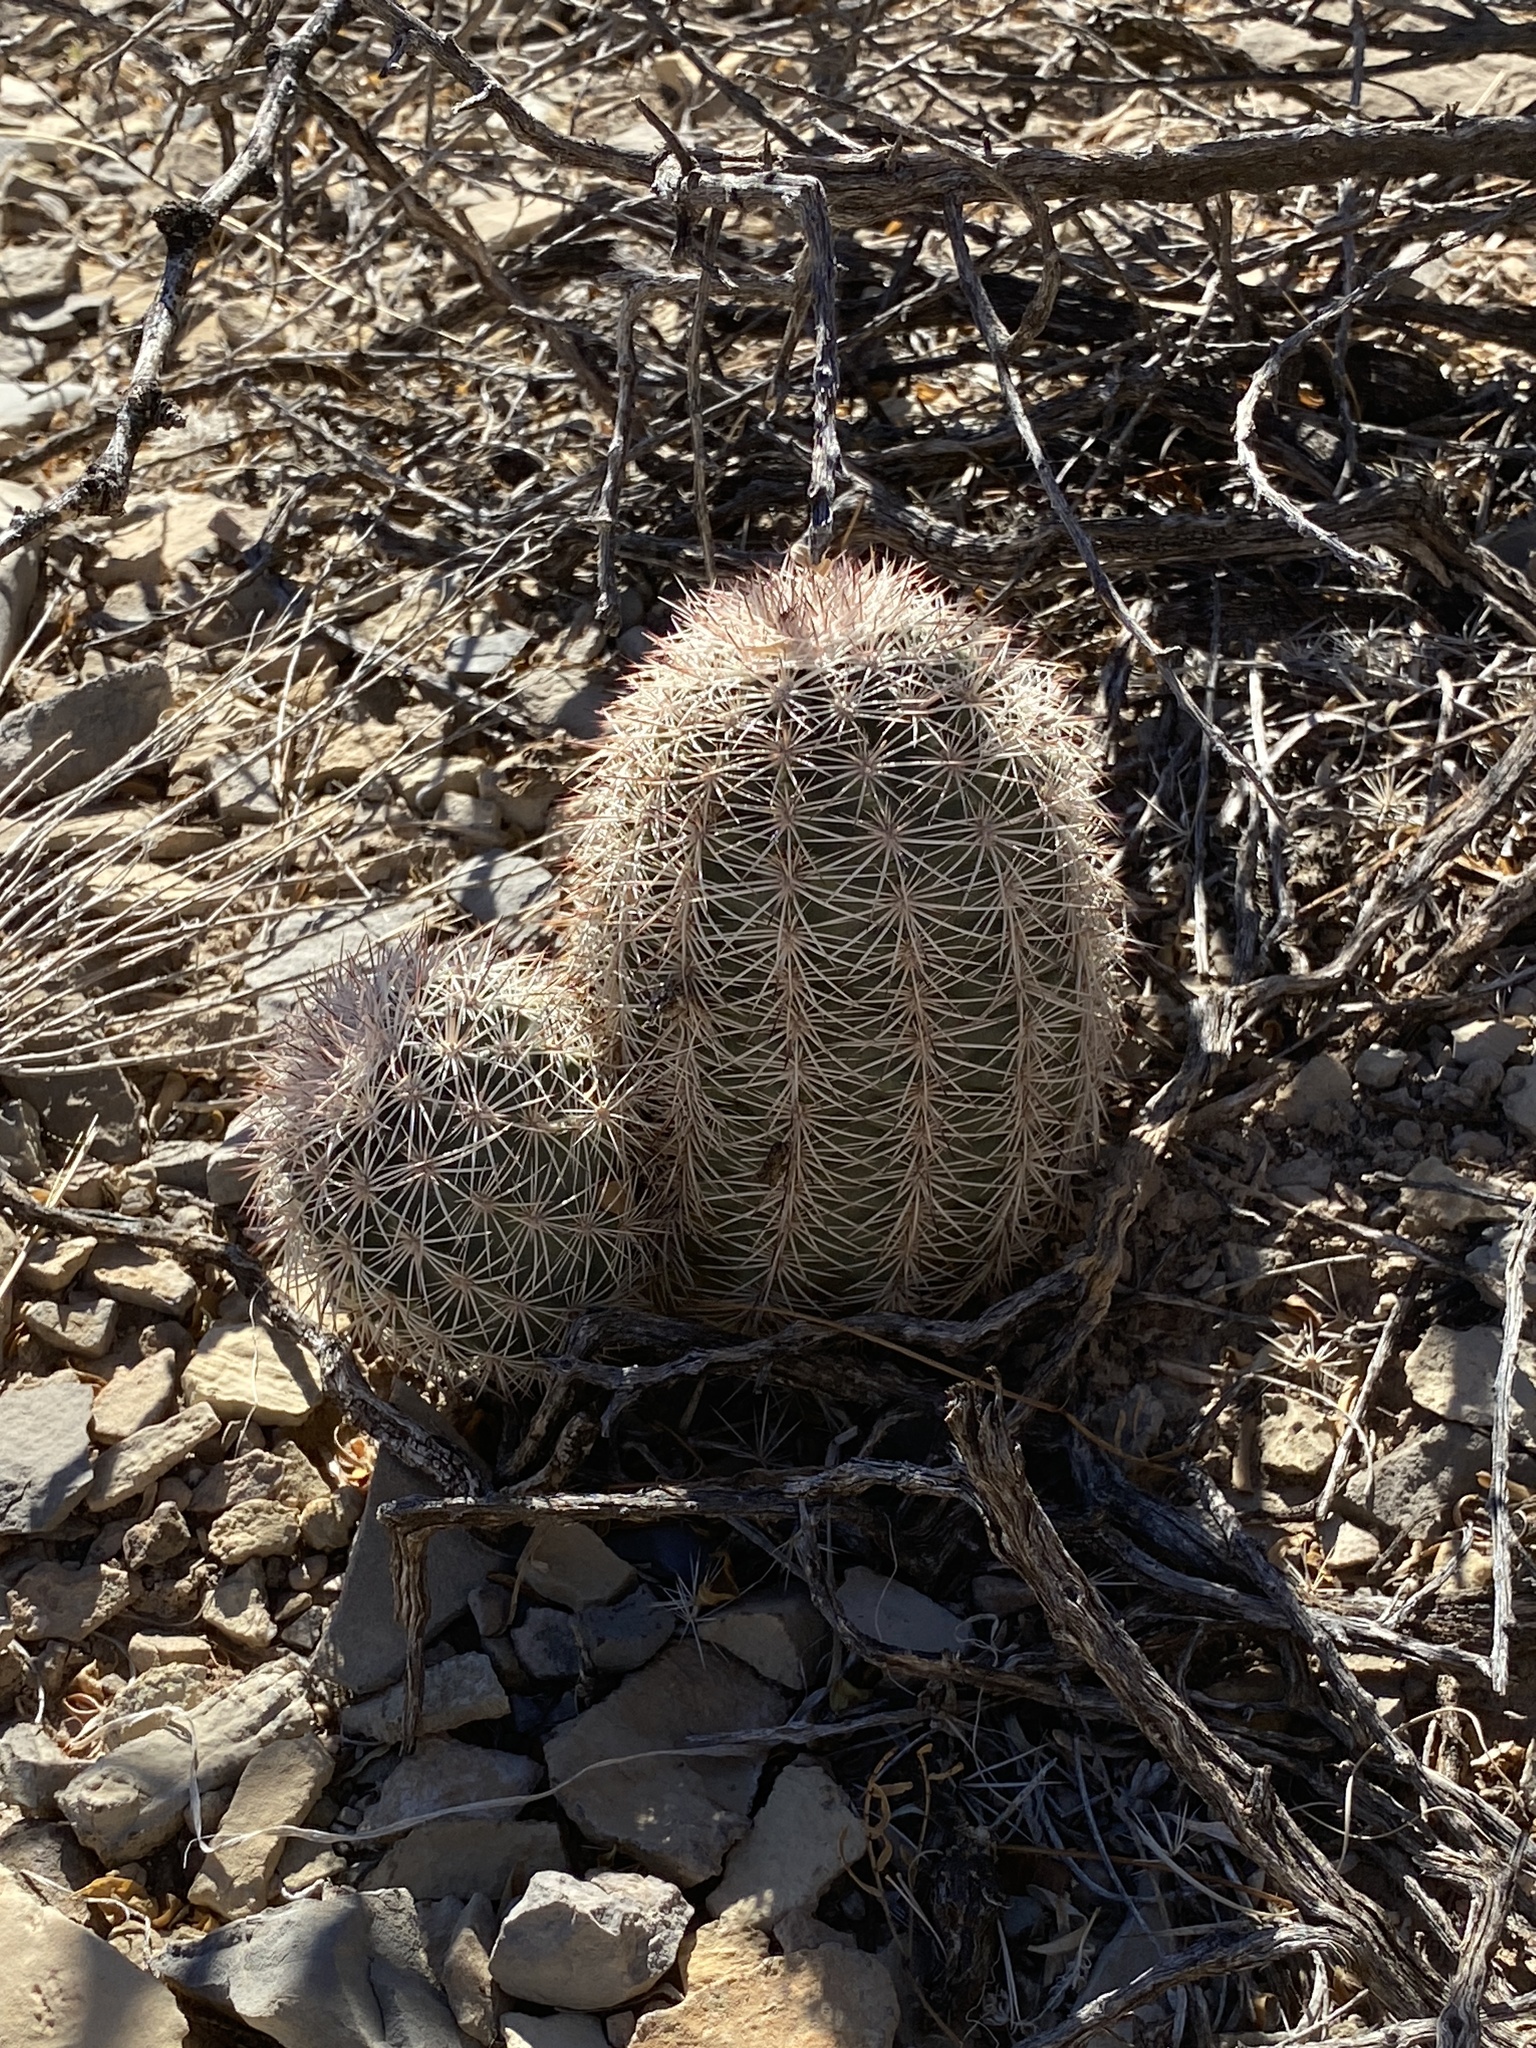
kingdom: Plantae
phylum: Tracheophyta
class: Magnoliopsida
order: Caryophyllales
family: Cactaceae
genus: Echinocereus
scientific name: Echinocereus dasyacanthus
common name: Spiny hedgehog cactus
